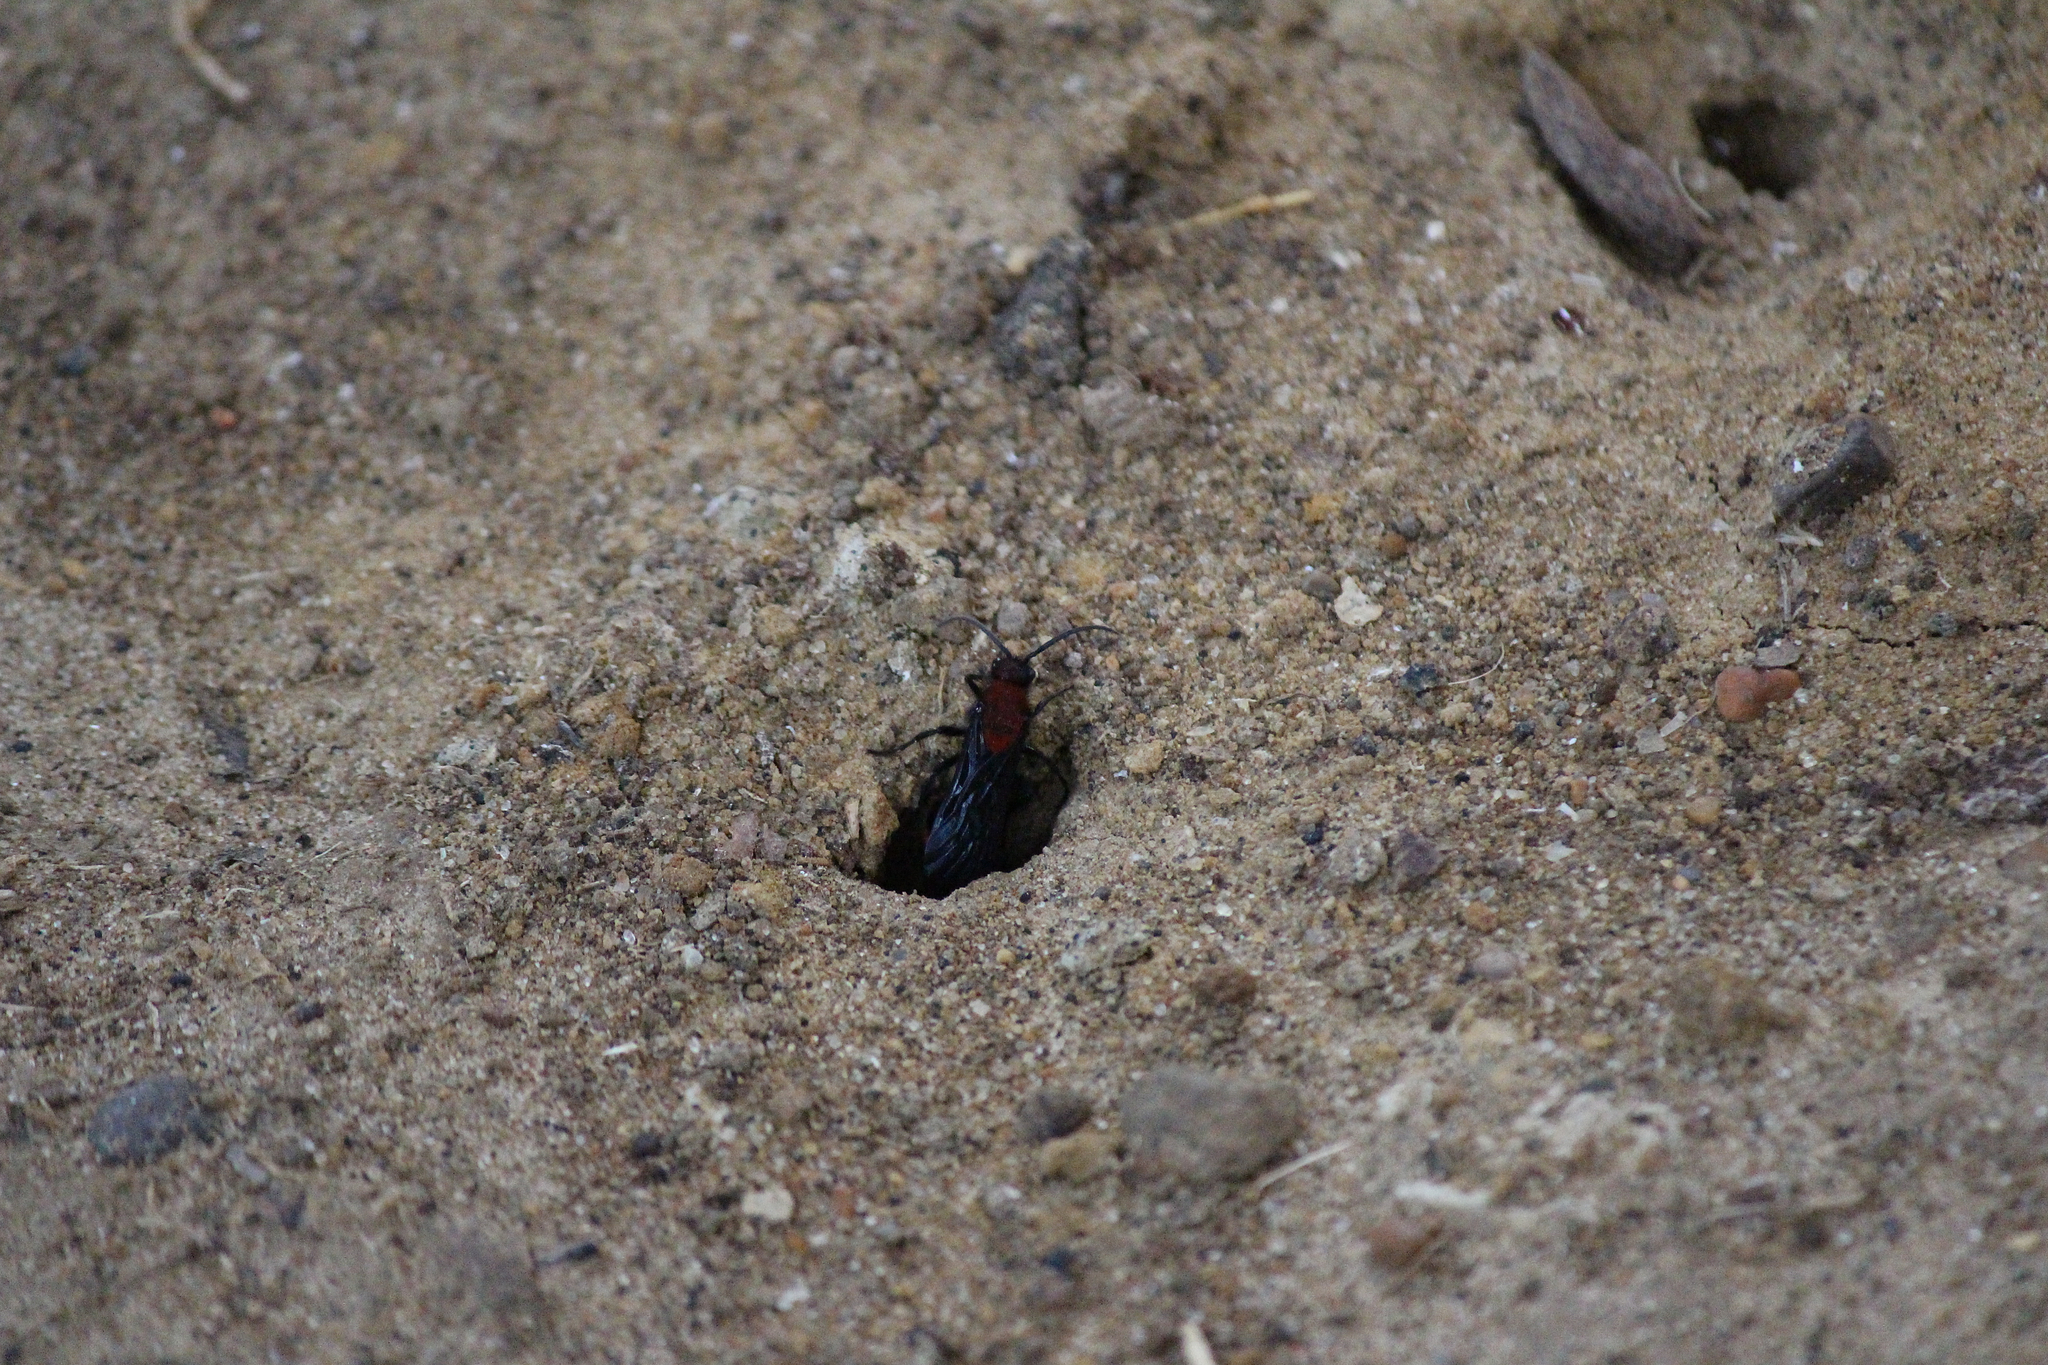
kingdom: Animalia
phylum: Arthropoda
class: Insecta
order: Hymenoptera
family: Mutillidae
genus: Dasymutilla
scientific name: Dasymutilla occidentalis
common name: Common eastern velvet ant
